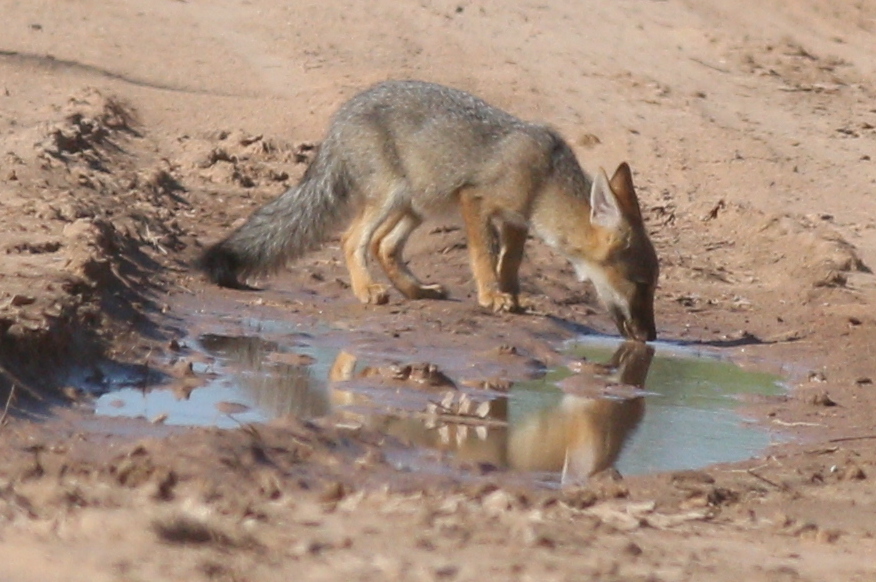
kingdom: Animalia
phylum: Chordata
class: Mammalia
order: Carnivora
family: Canidae
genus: Lycalopex
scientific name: Lycalopex gymnocercus
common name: Pampas fox
